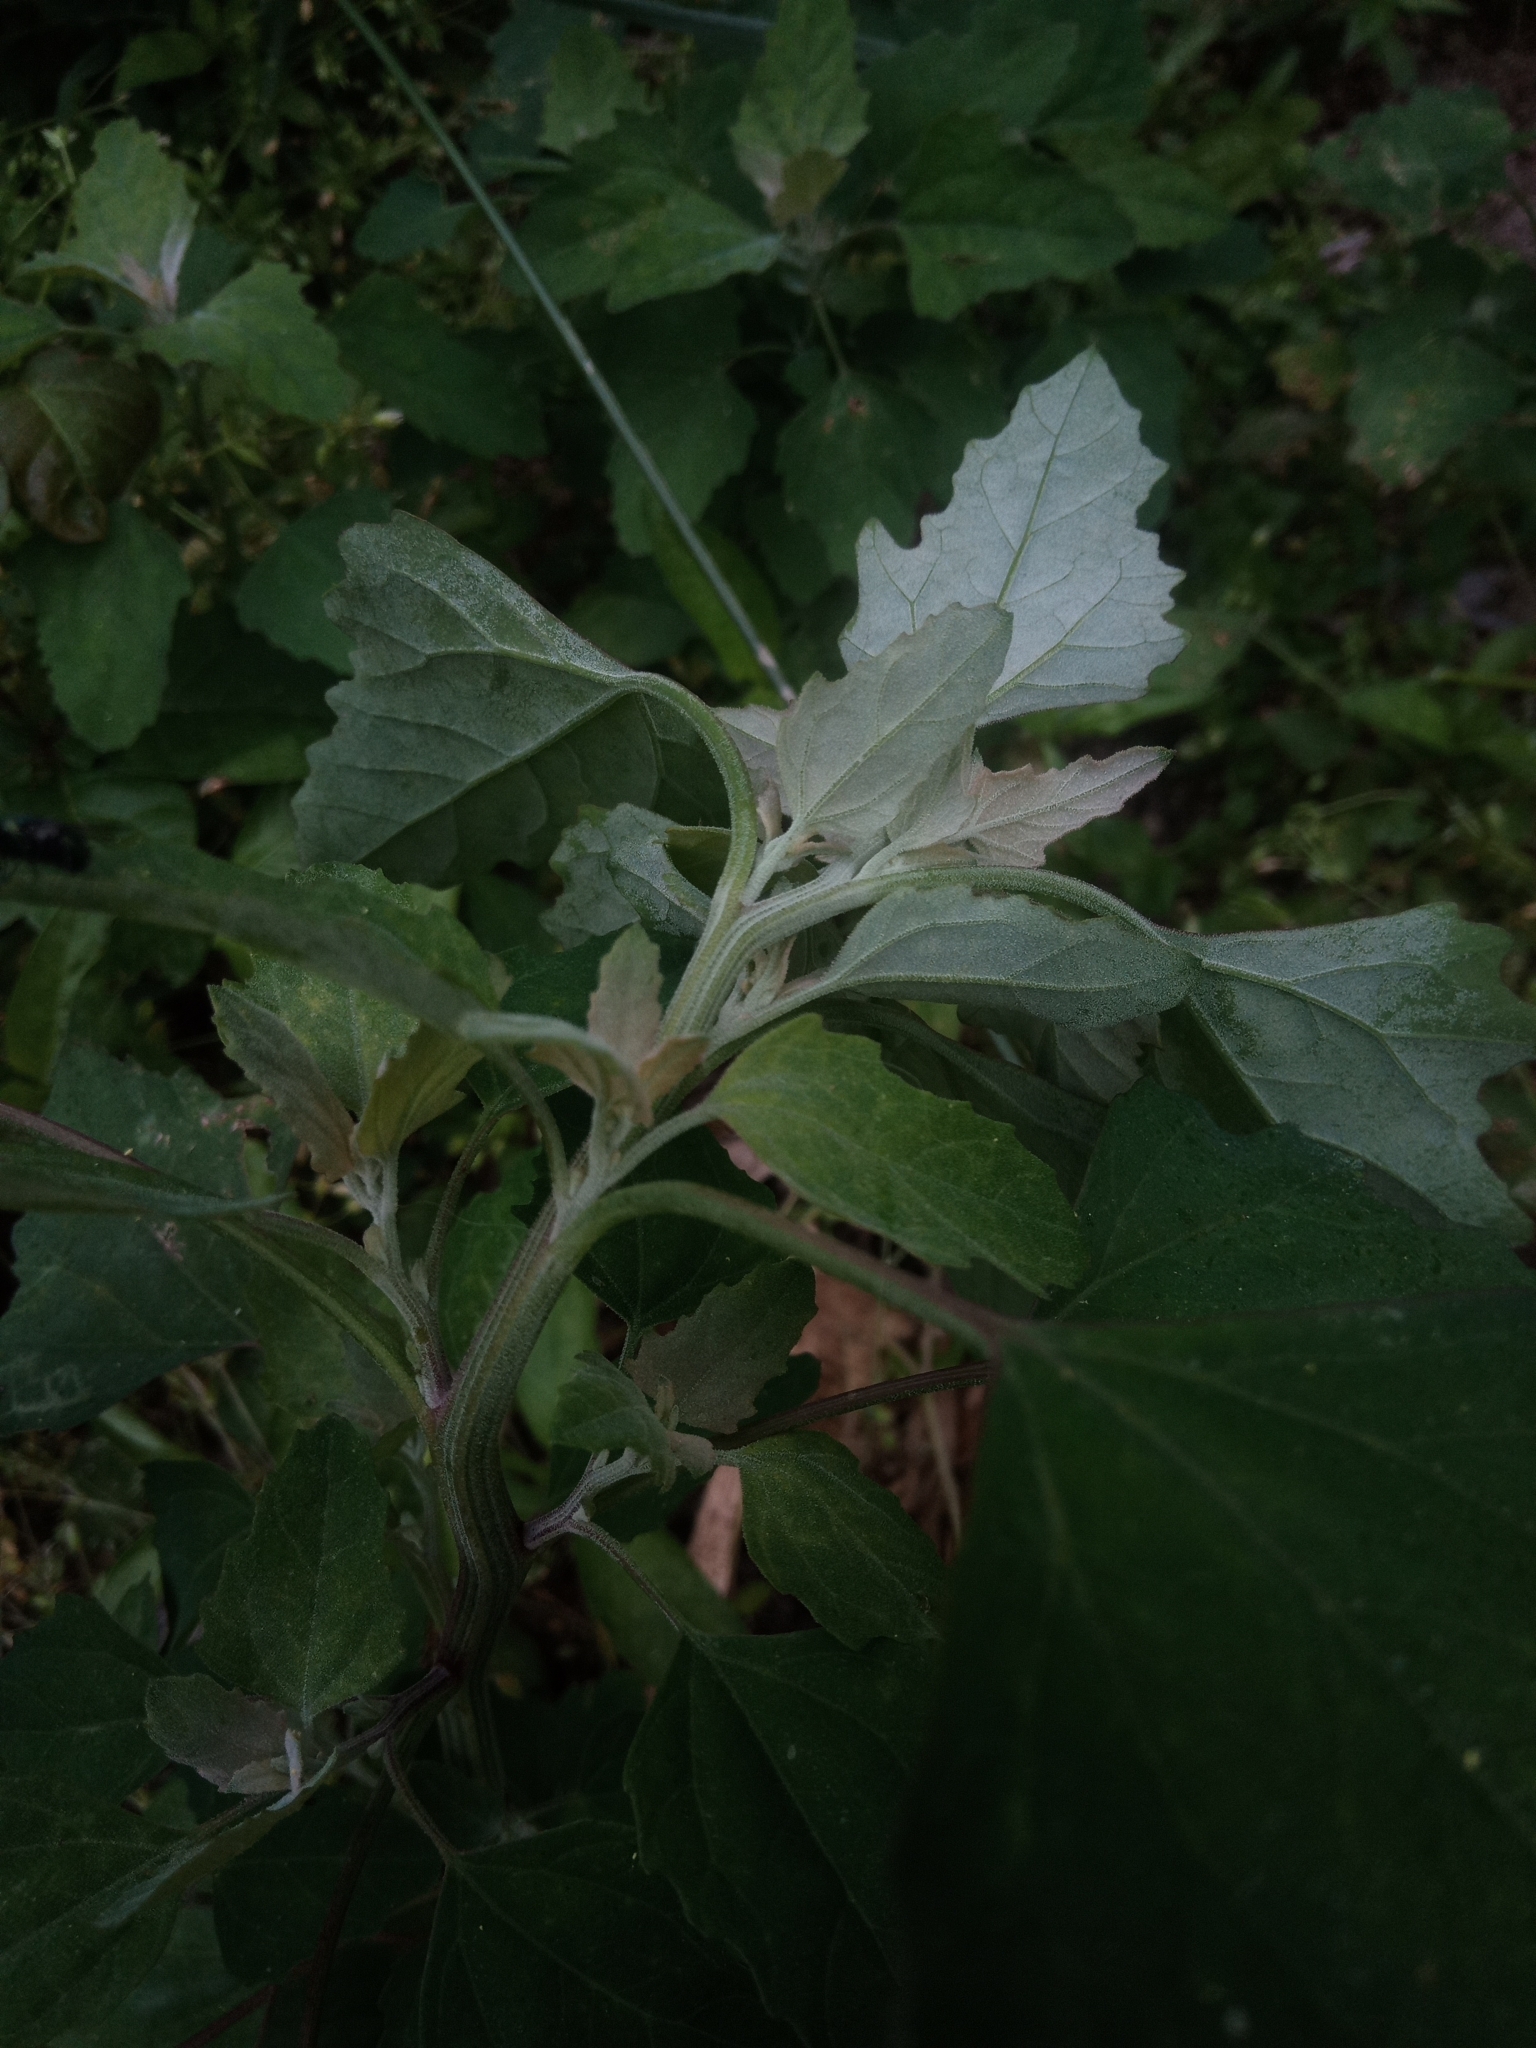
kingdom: Plantae
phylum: Tracheophyta
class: Magnoliopsida
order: Caryophyllales
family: Amaranthaceae
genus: Chenopodium
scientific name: Chenopodium album
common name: Fat-hen
